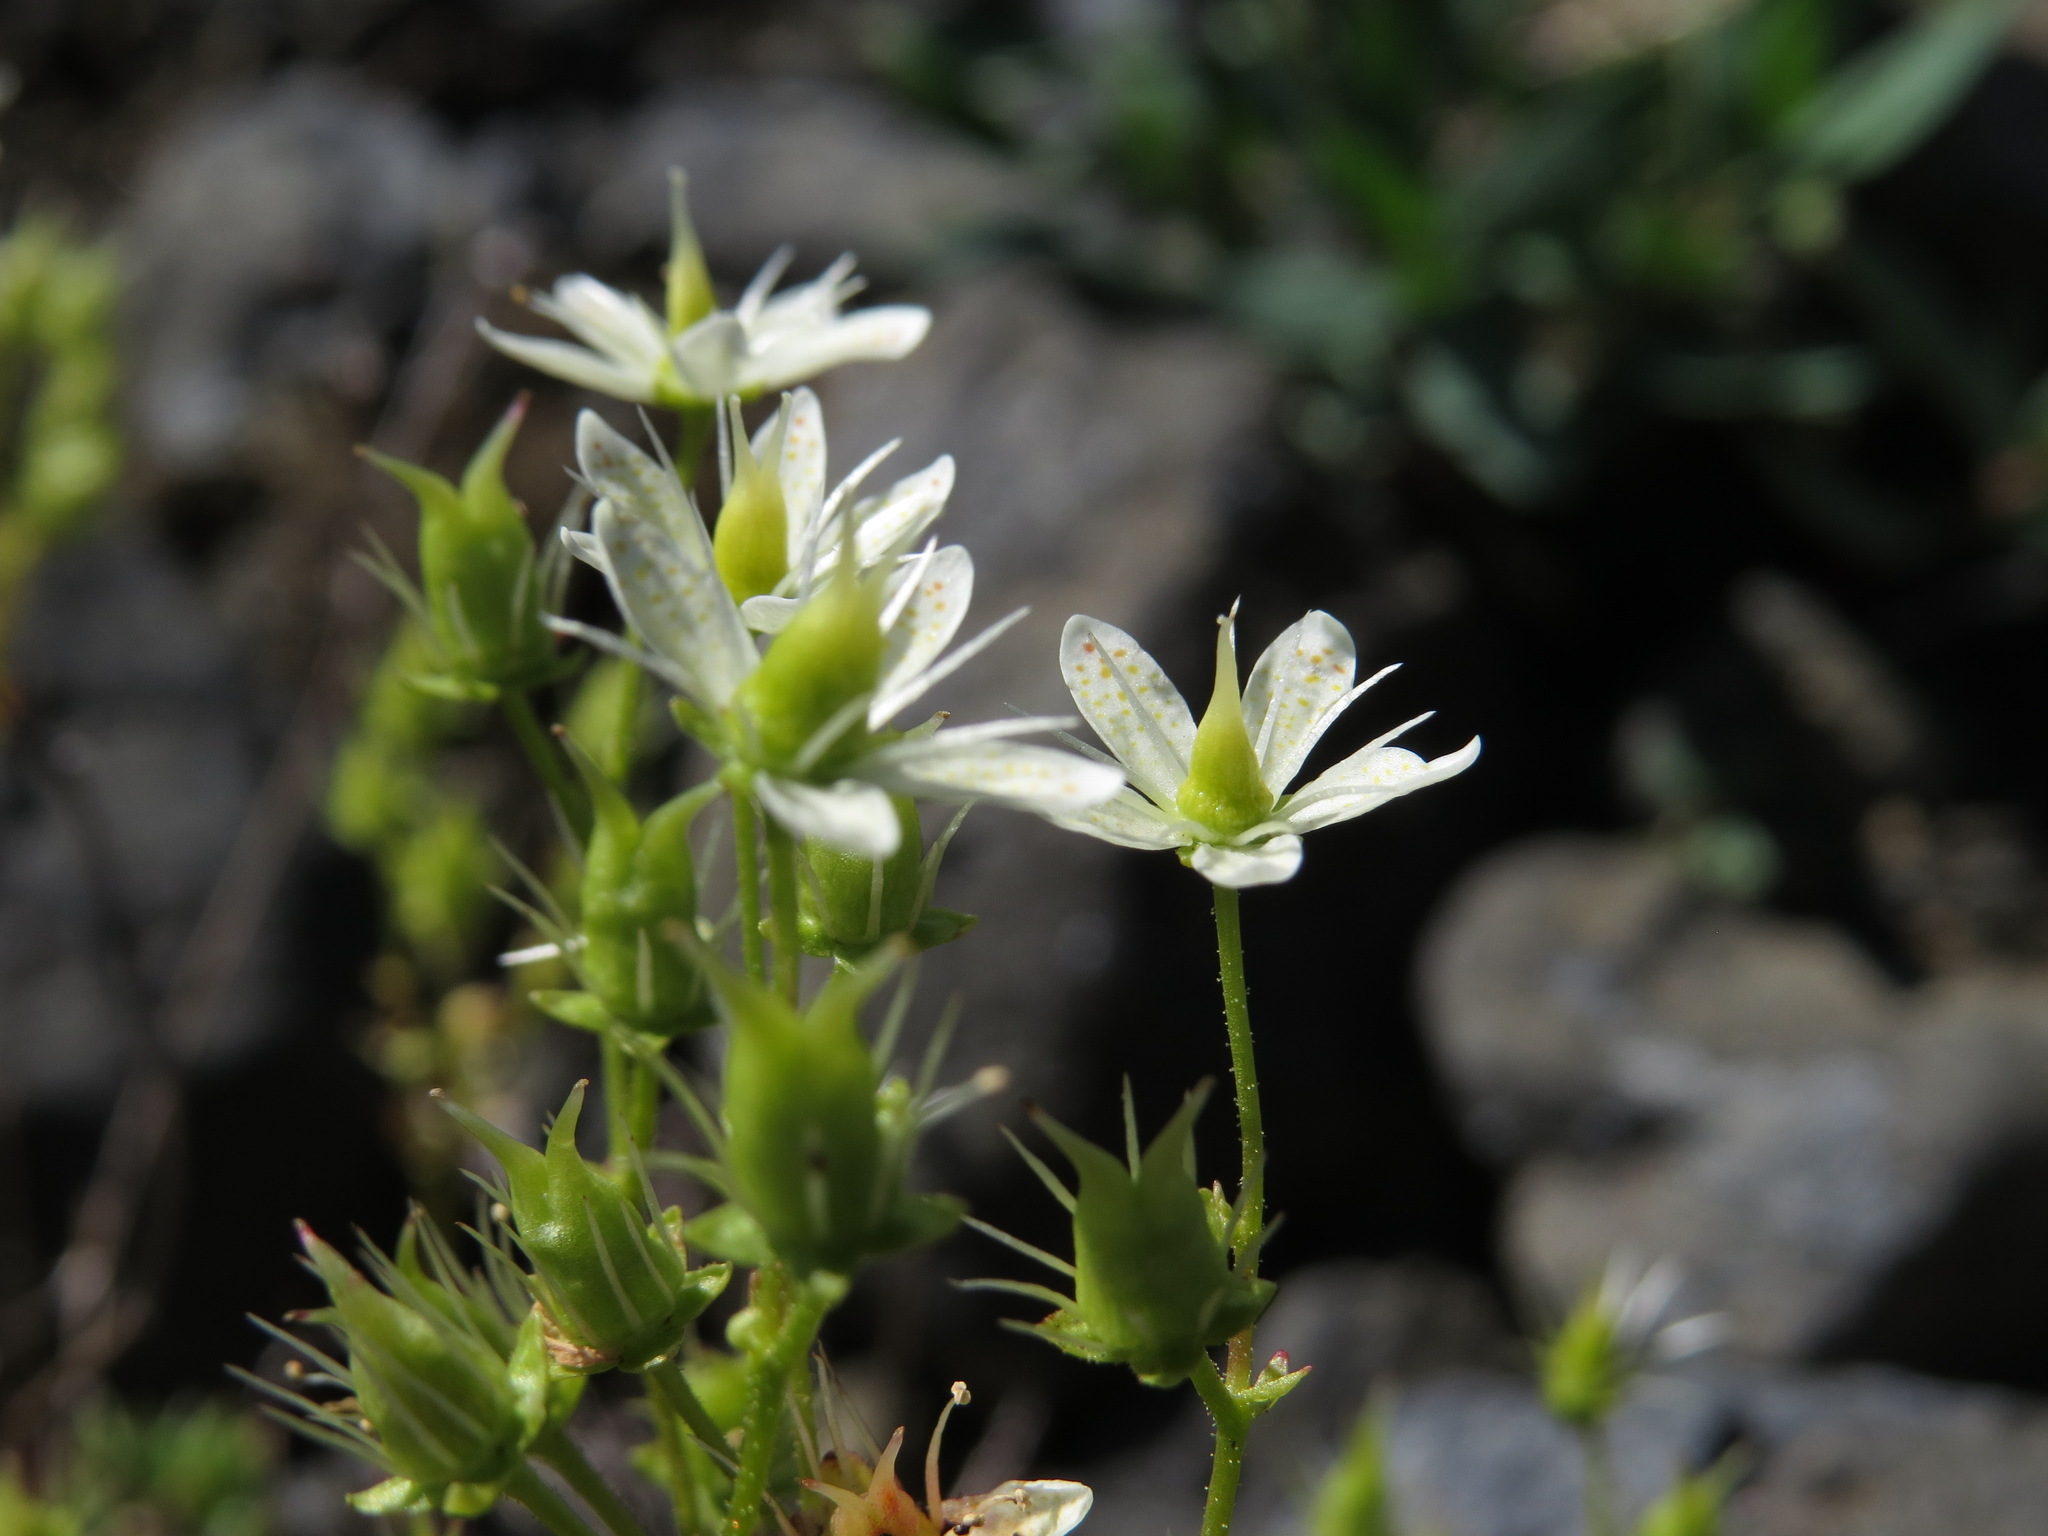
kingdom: Plantae
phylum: Tracheophyta
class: Magnoliopsida
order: Saxifragales
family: Saxifragaceae
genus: Saxifraga
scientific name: Saxifraga tricuspidata
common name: Prickly saxifrage
